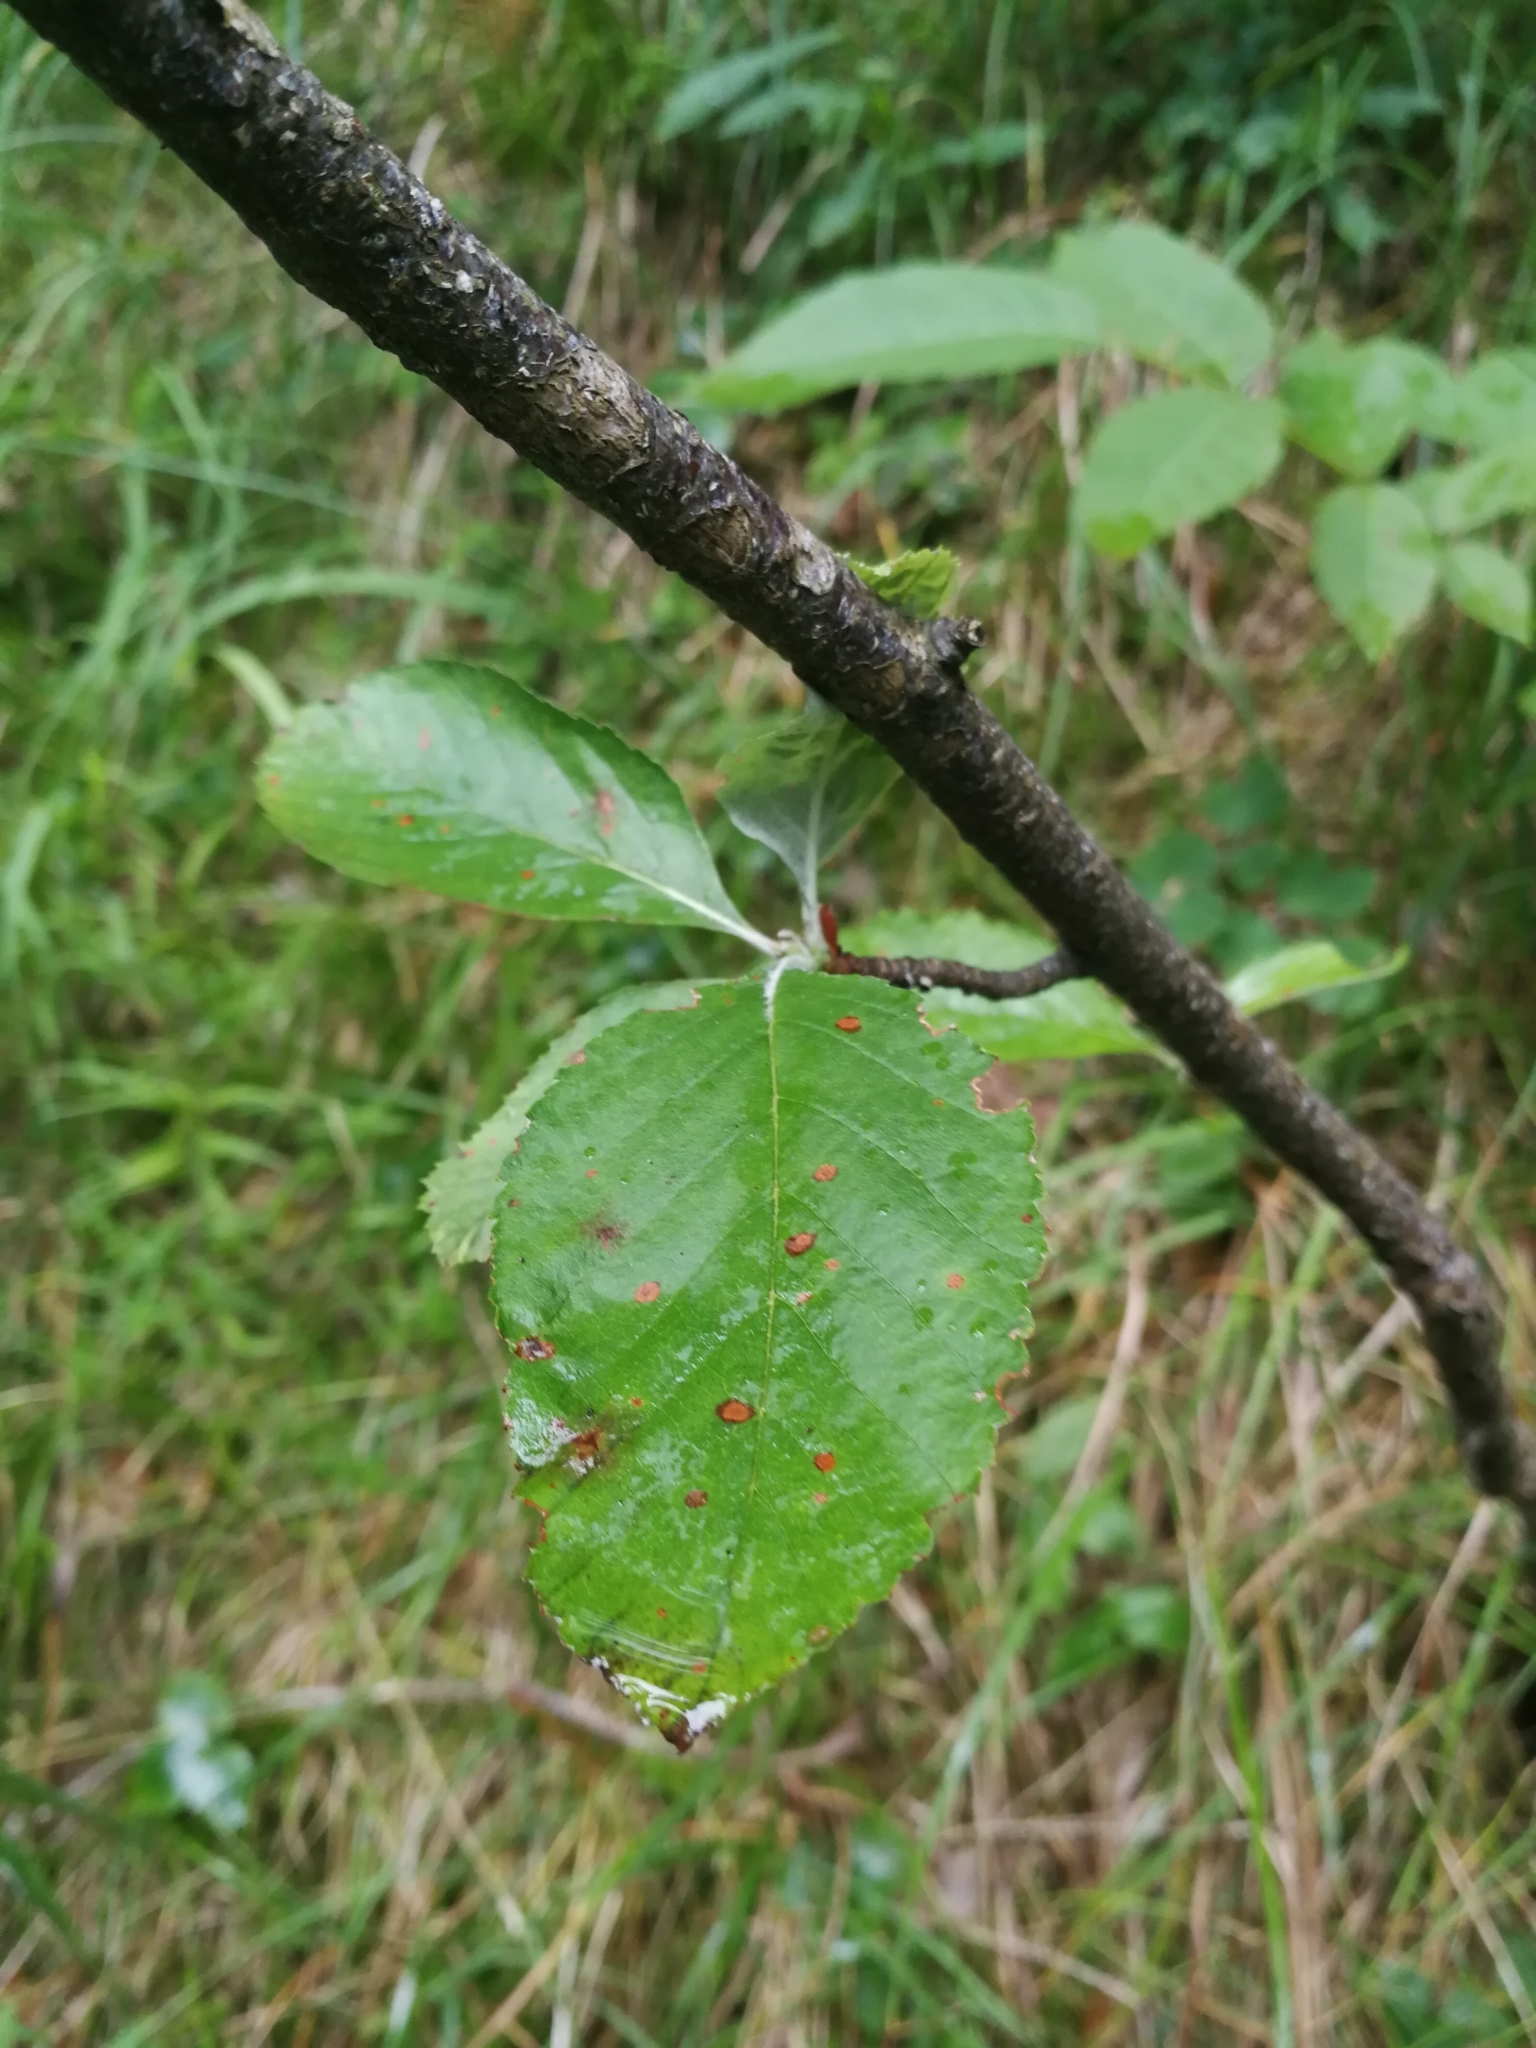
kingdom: Plantae
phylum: Tracheophyta
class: Magnoliopsida
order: Rosales
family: Rosaceae
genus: Aria
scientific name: Aria edulis
